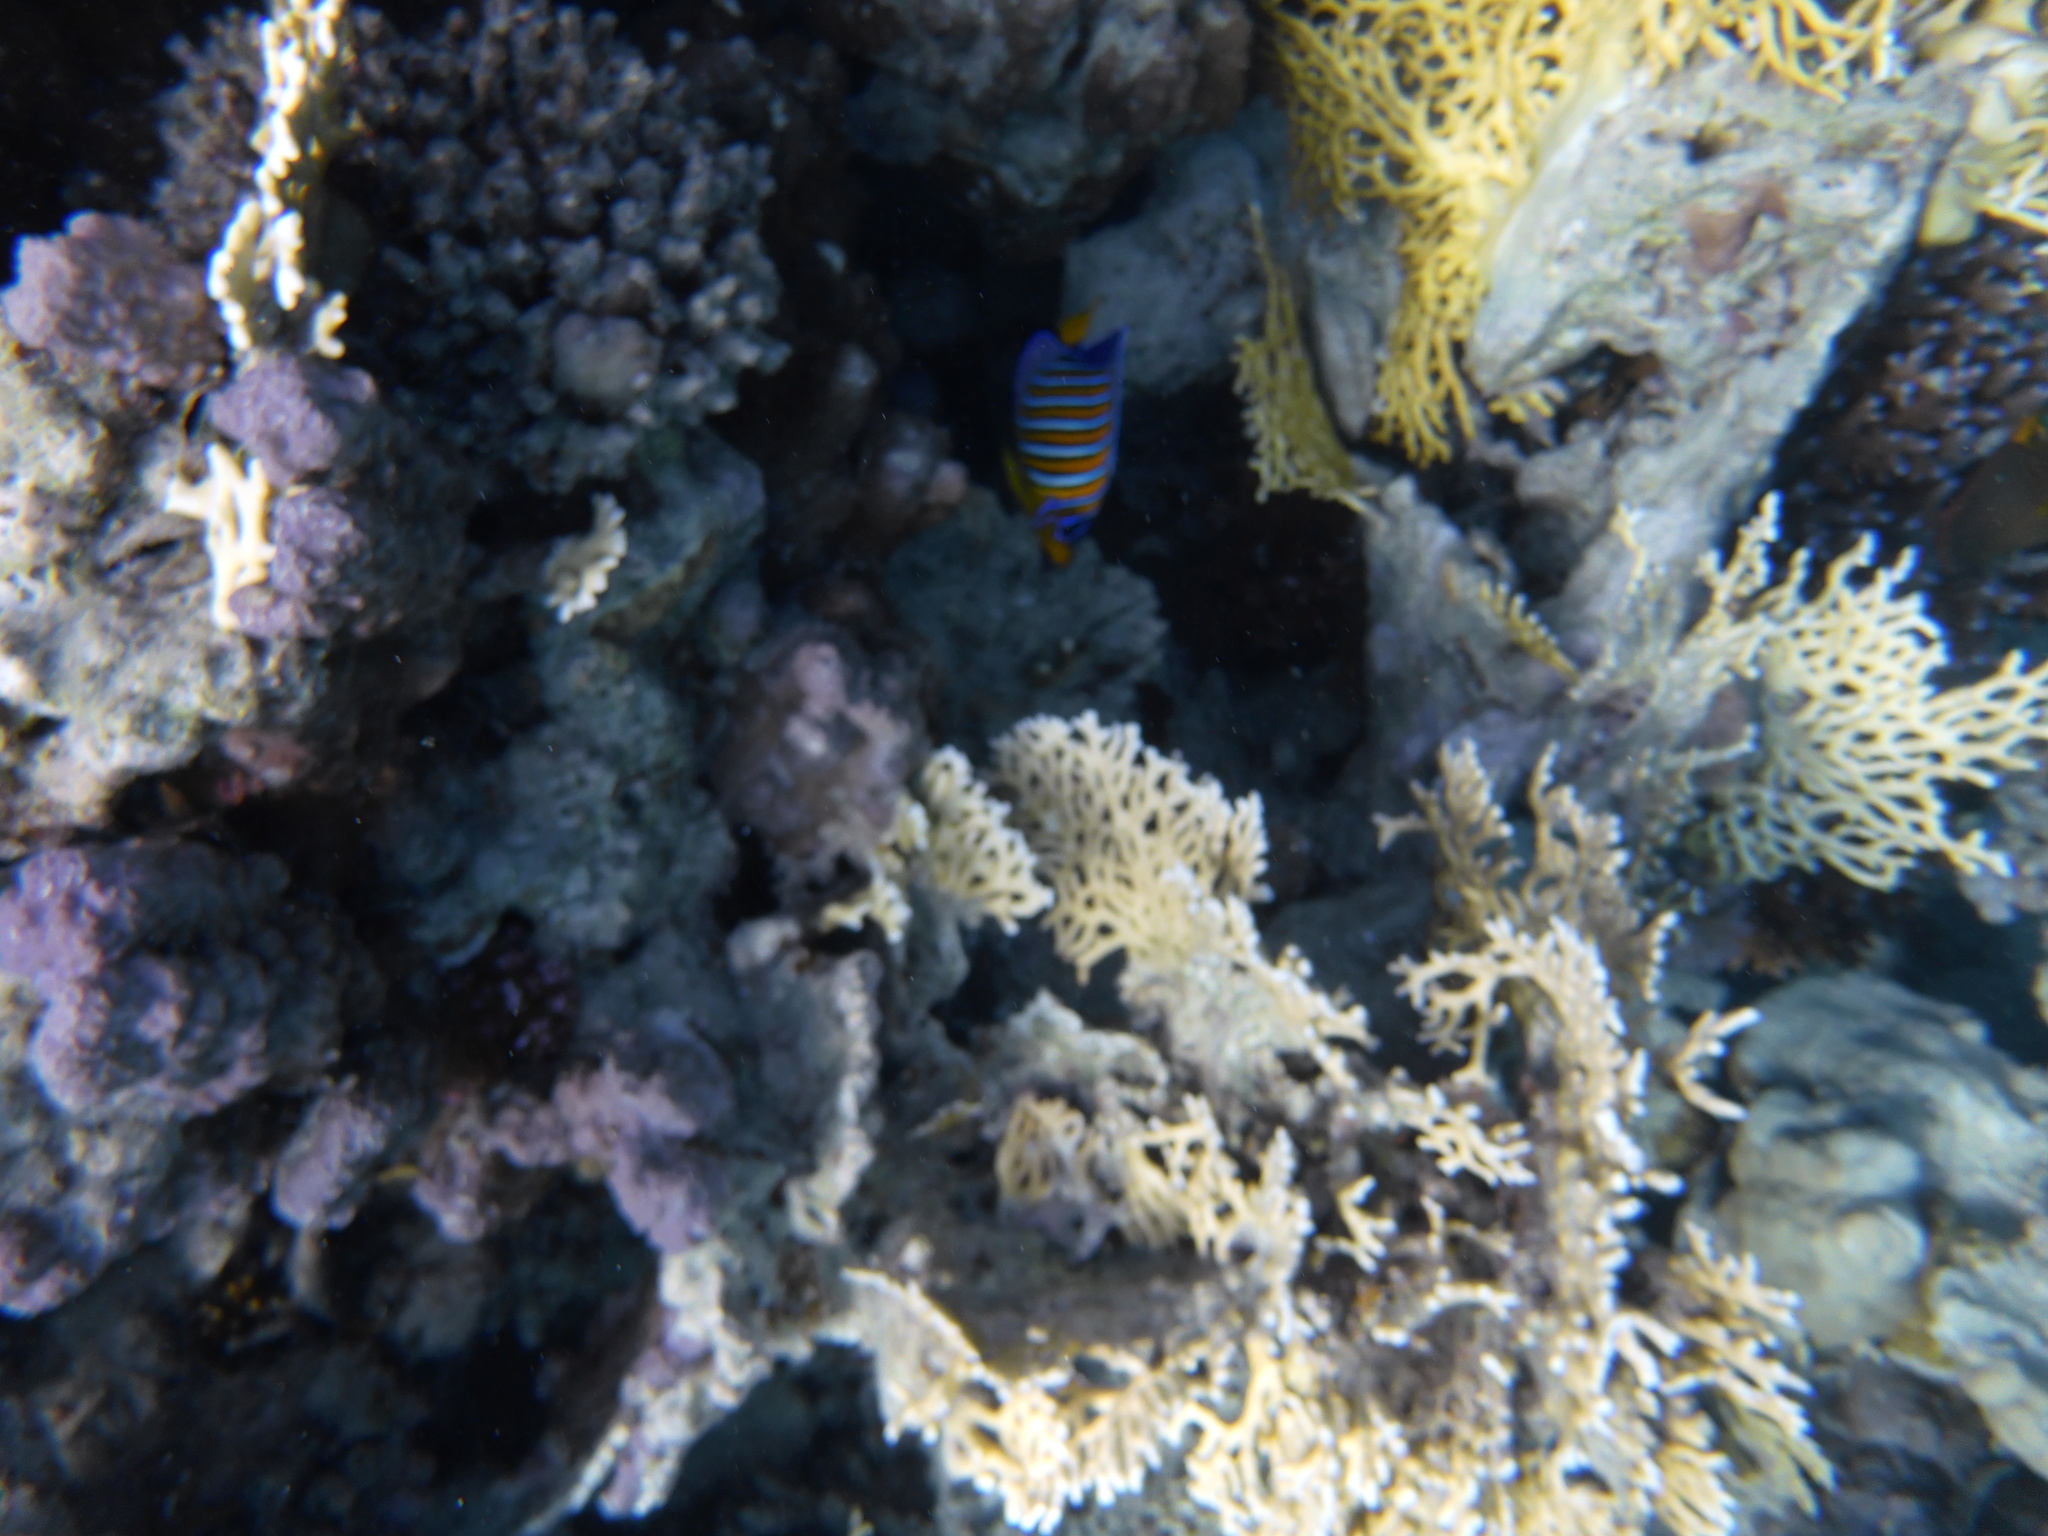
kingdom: Animalia
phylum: Chordata
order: Perciformes
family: Pomacanthidae
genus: Pygoplites
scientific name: Pygoplites diacanthus
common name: Regal angelfish
